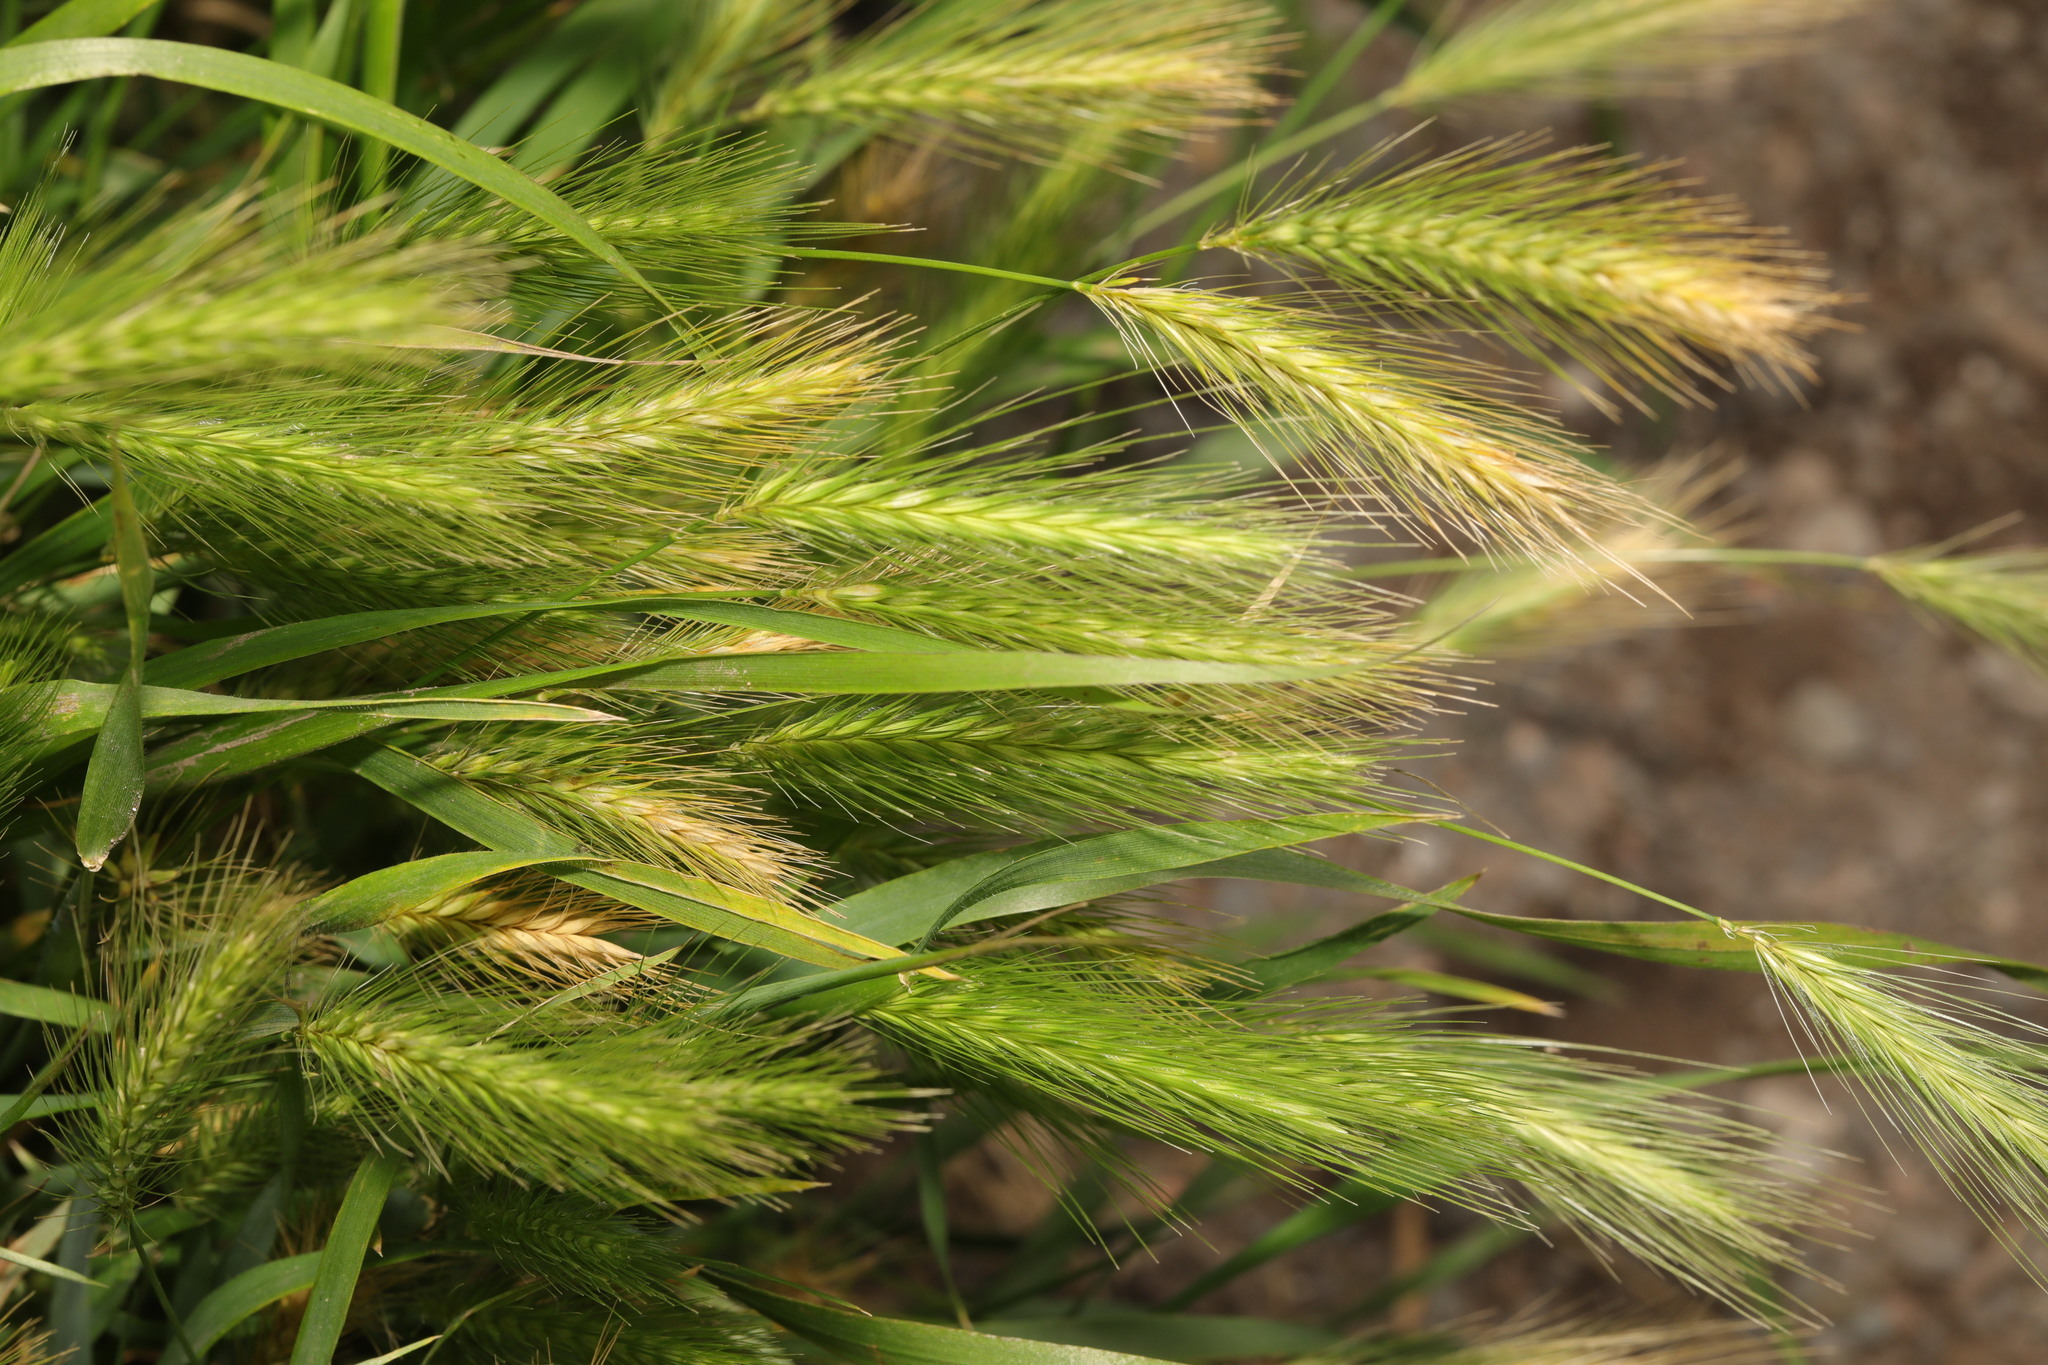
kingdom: Plantae
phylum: Tracheophyta
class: Liliopsida
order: Poales
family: Poaceae
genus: Hordeum
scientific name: Hordeum murinum
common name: Wall barley
